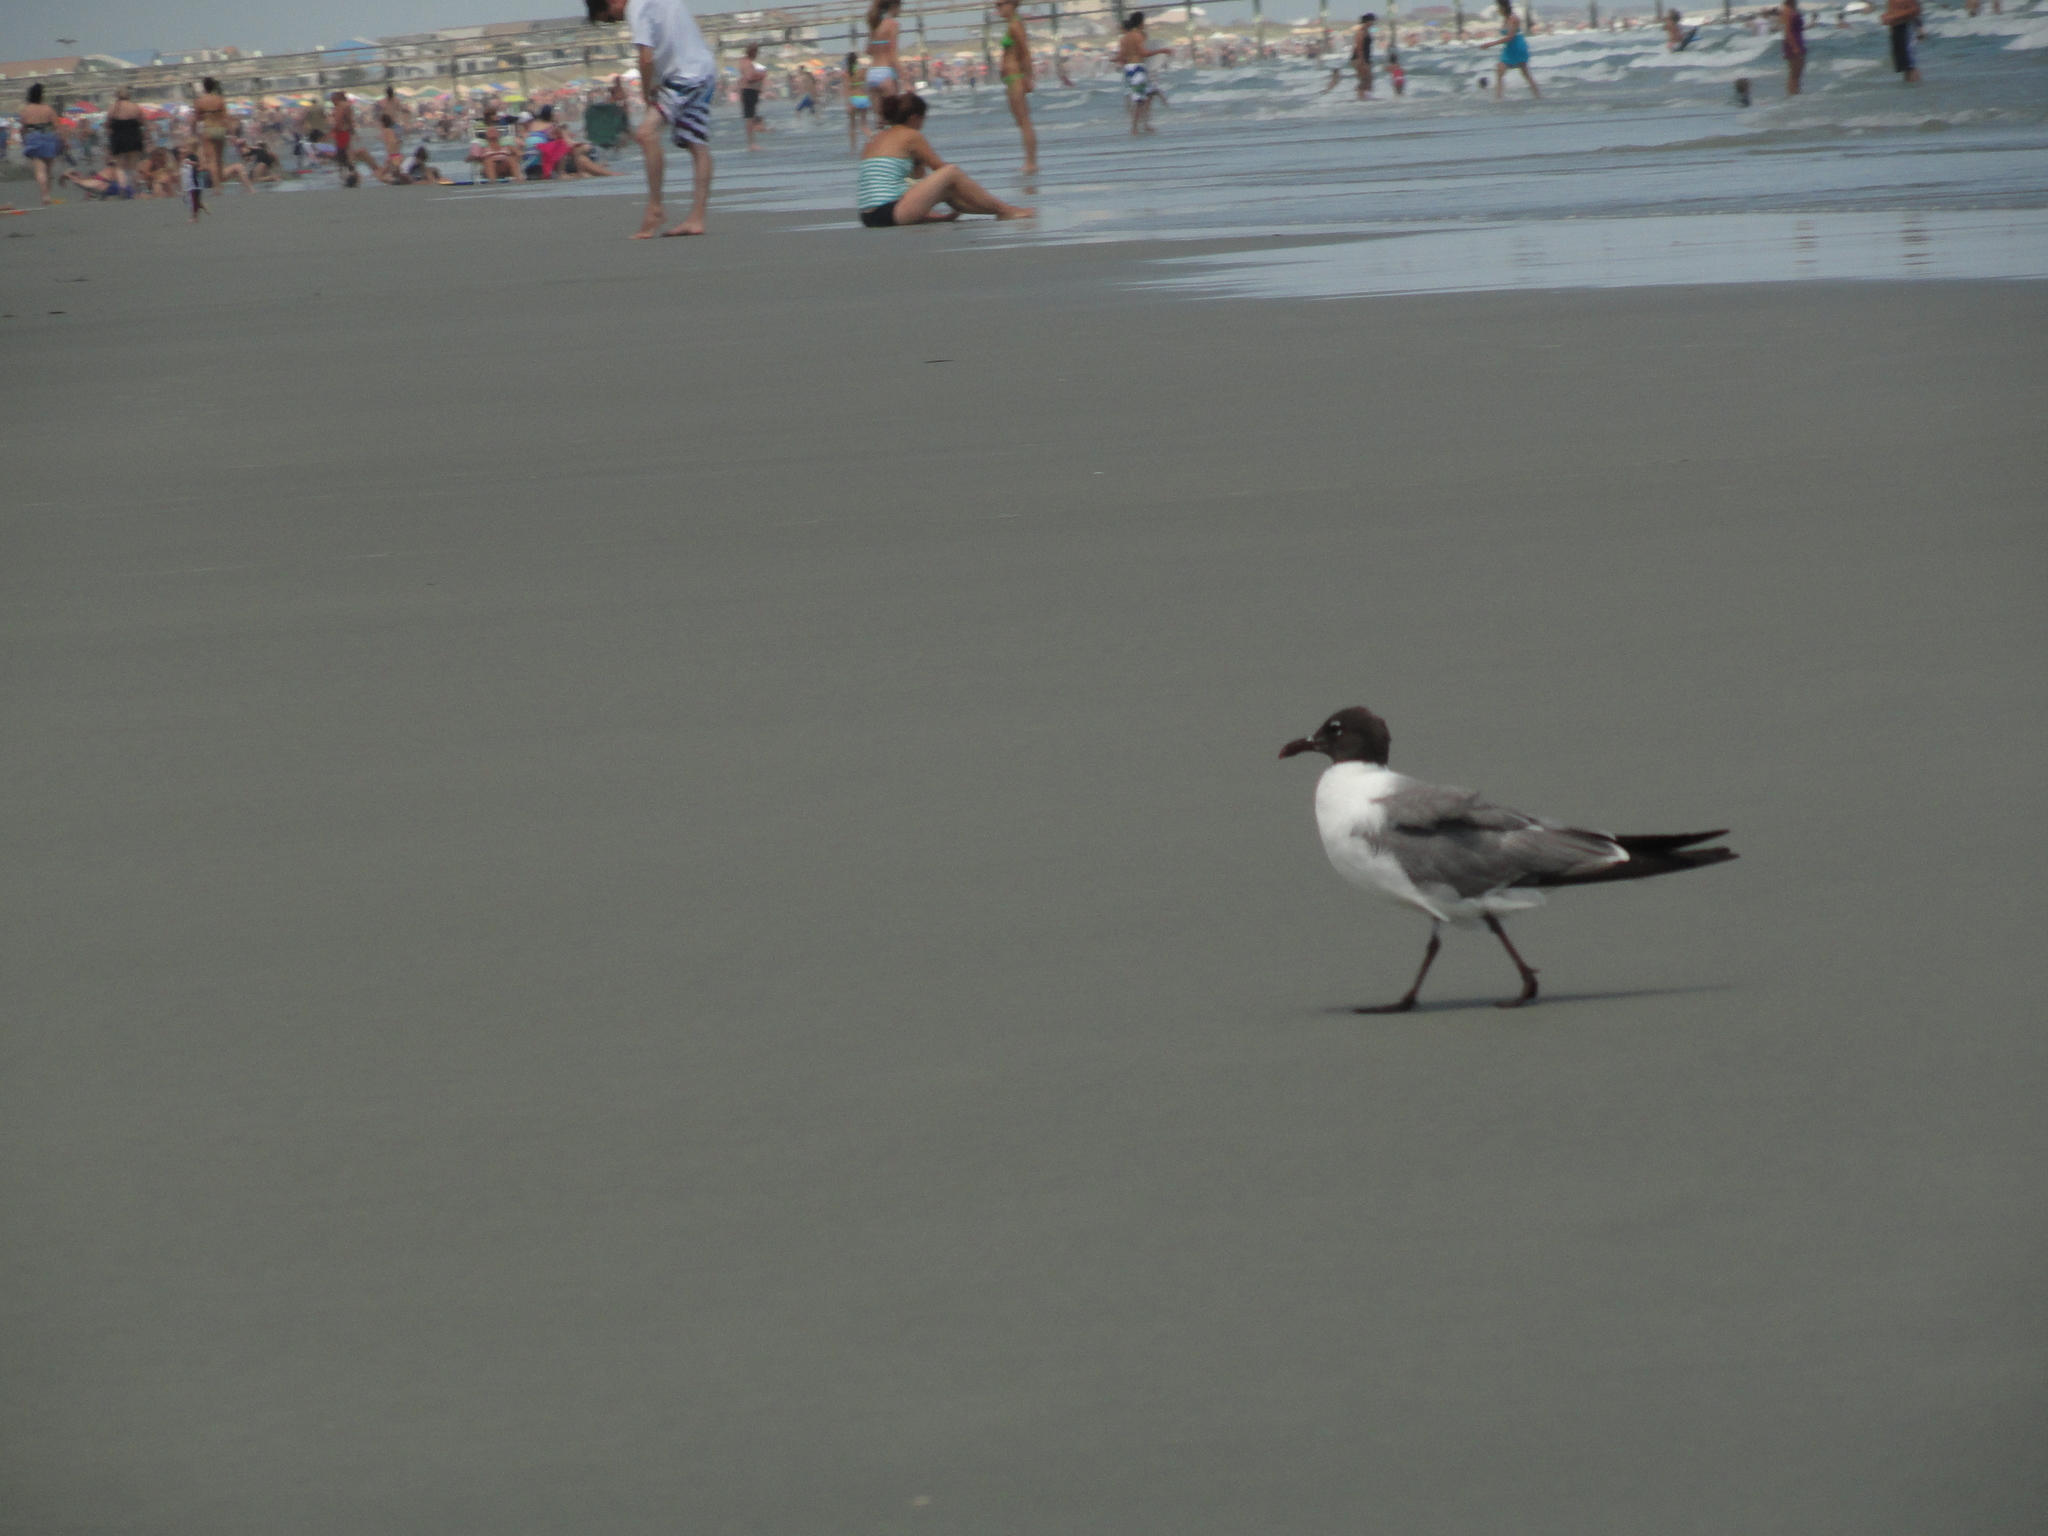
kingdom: Animalia
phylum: Chordata
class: Aves
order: Charadriiformes
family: Laridae
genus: Leucophaeus
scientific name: Leucophaeus atricilla
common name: Laughing gull
